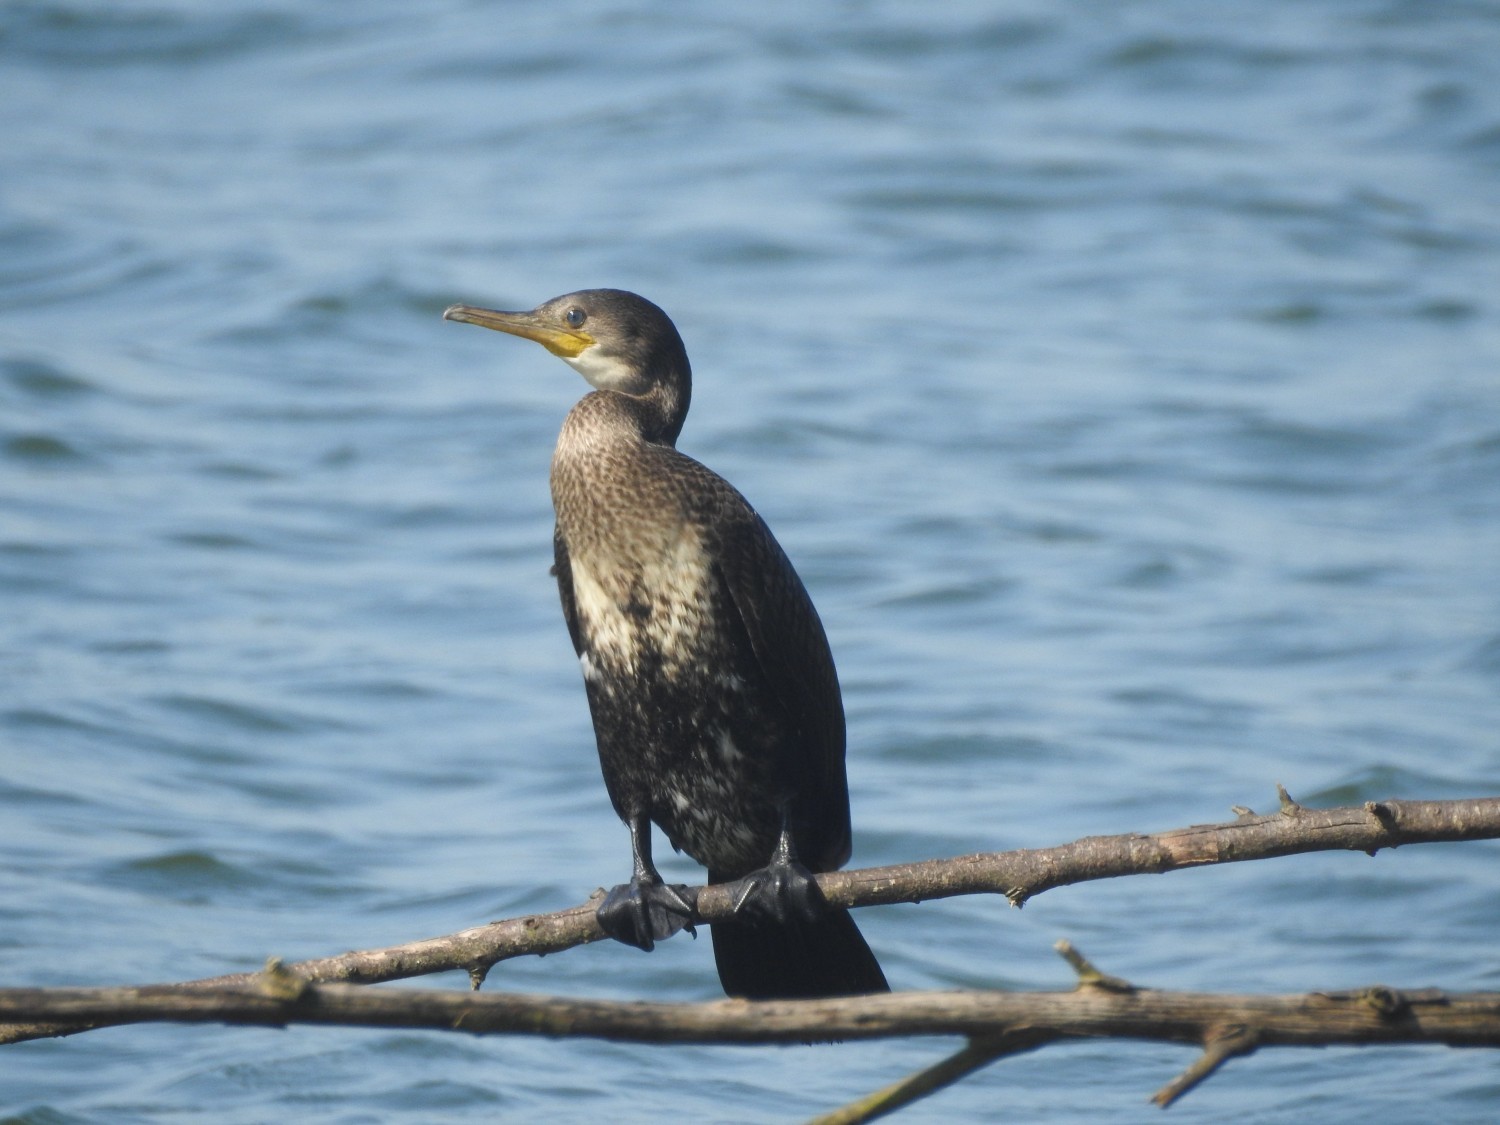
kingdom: Animalia
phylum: Chordata
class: Aves
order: Suliformes
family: Phalacrocoracidae
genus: Phalacrocorax
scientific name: Phalacrocorax fuscicollis
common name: Indian cormorant
